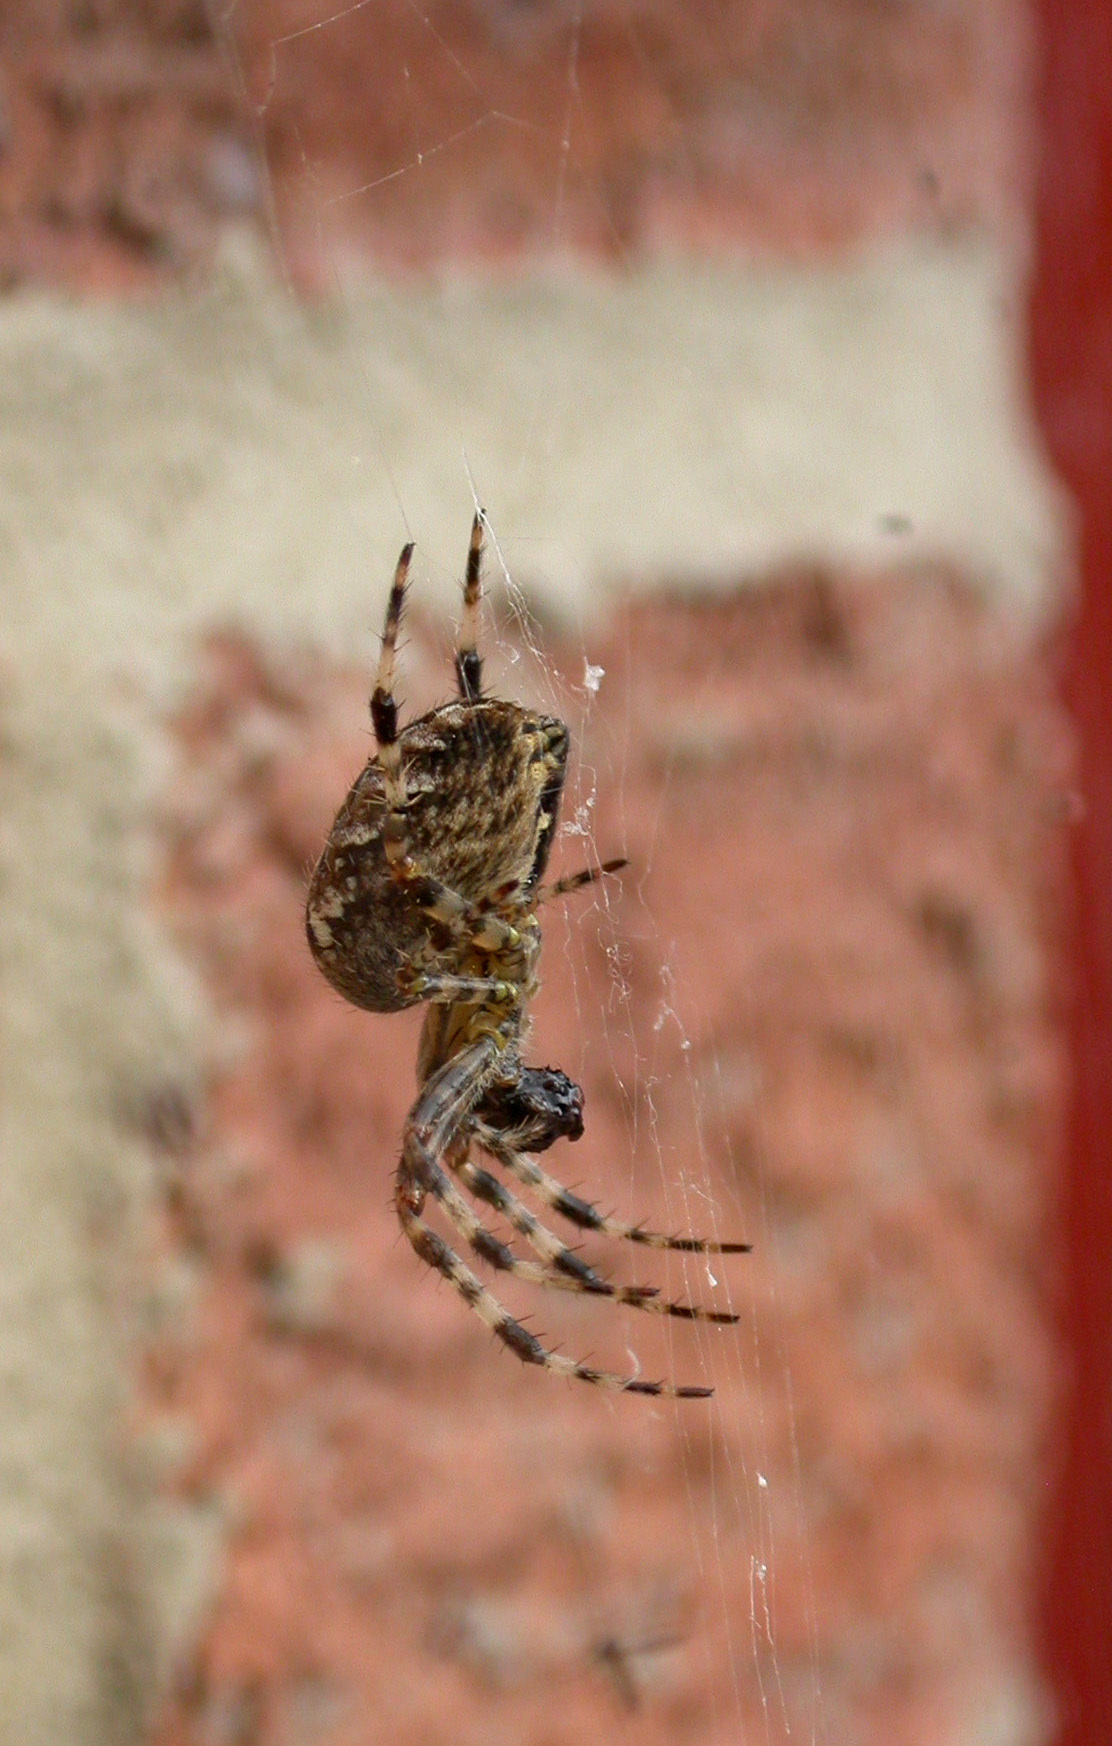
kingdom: Animalia
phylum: Arthropoda
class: Arachnida
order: Araneae
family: Araneidae
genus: Araneus
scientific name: Araneus diadematus
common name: Cross orbweaver
